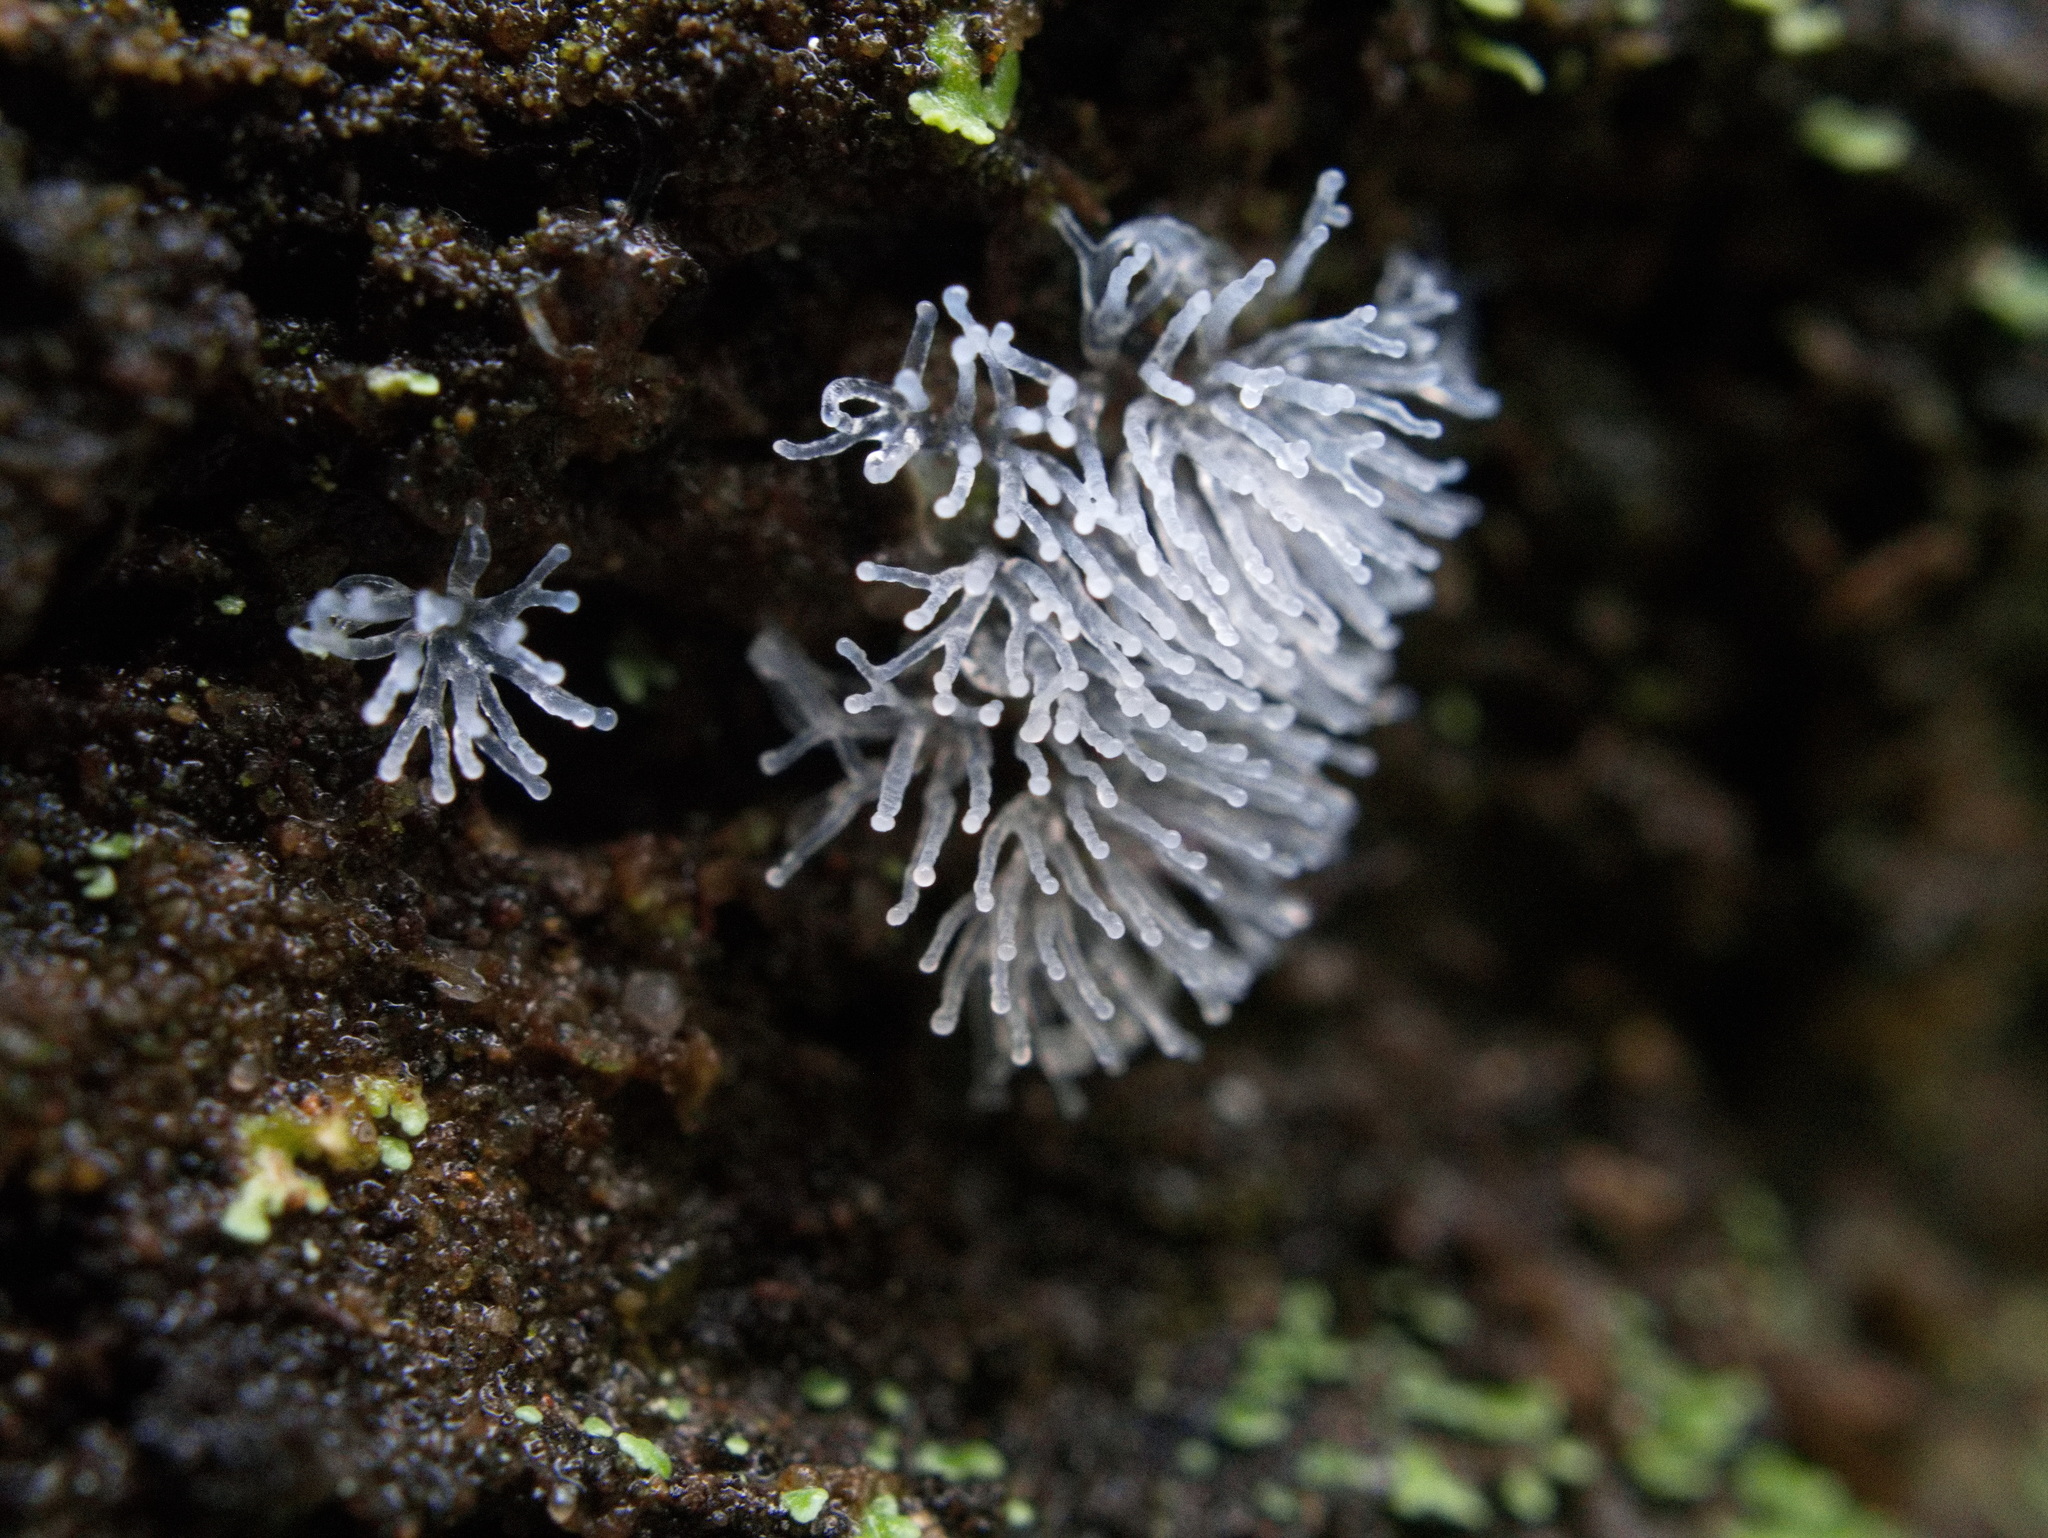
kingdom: Protozoa
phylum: Mycetozoa
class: Protosteliomycetes
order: Ceratiomyxales
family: Ceratiomyxaceae
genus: Ceratiomyxa
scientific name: Ceratiomyxa fruticulosa
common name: Honeycomb coral slime mold
